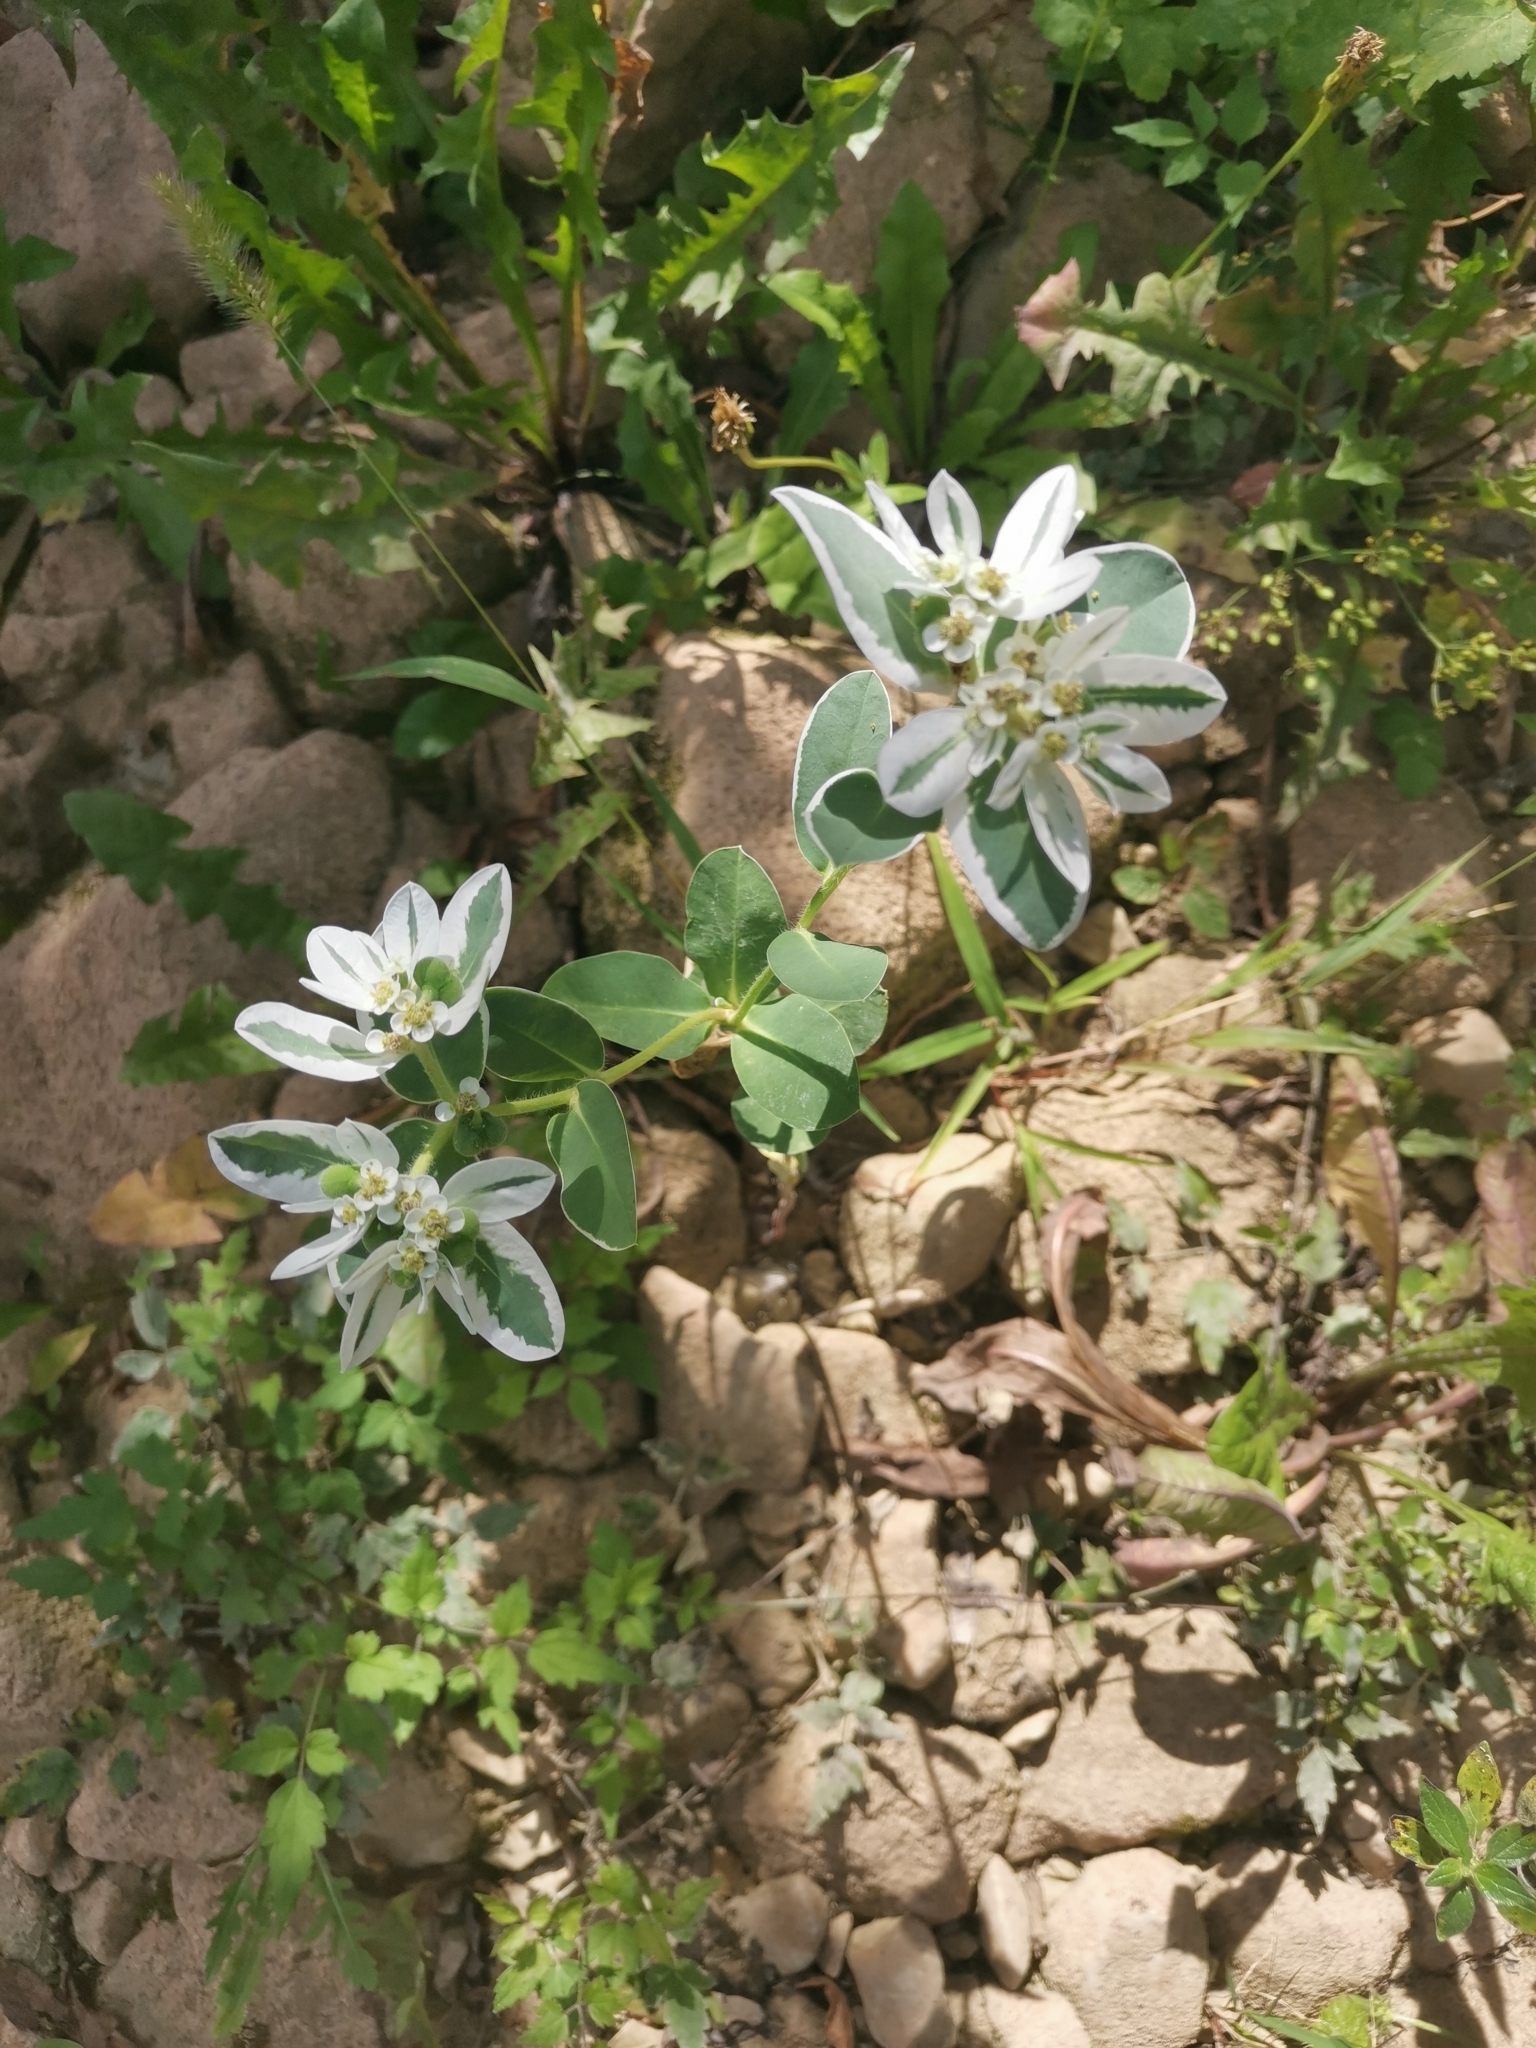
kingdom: Plantae
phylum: Tracheophyta
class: Magnoliopsida
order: Malpighiales
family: Euphorbiaceae
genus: Euphorbia
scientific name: Euphorbia marginata
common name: Ghostweed
